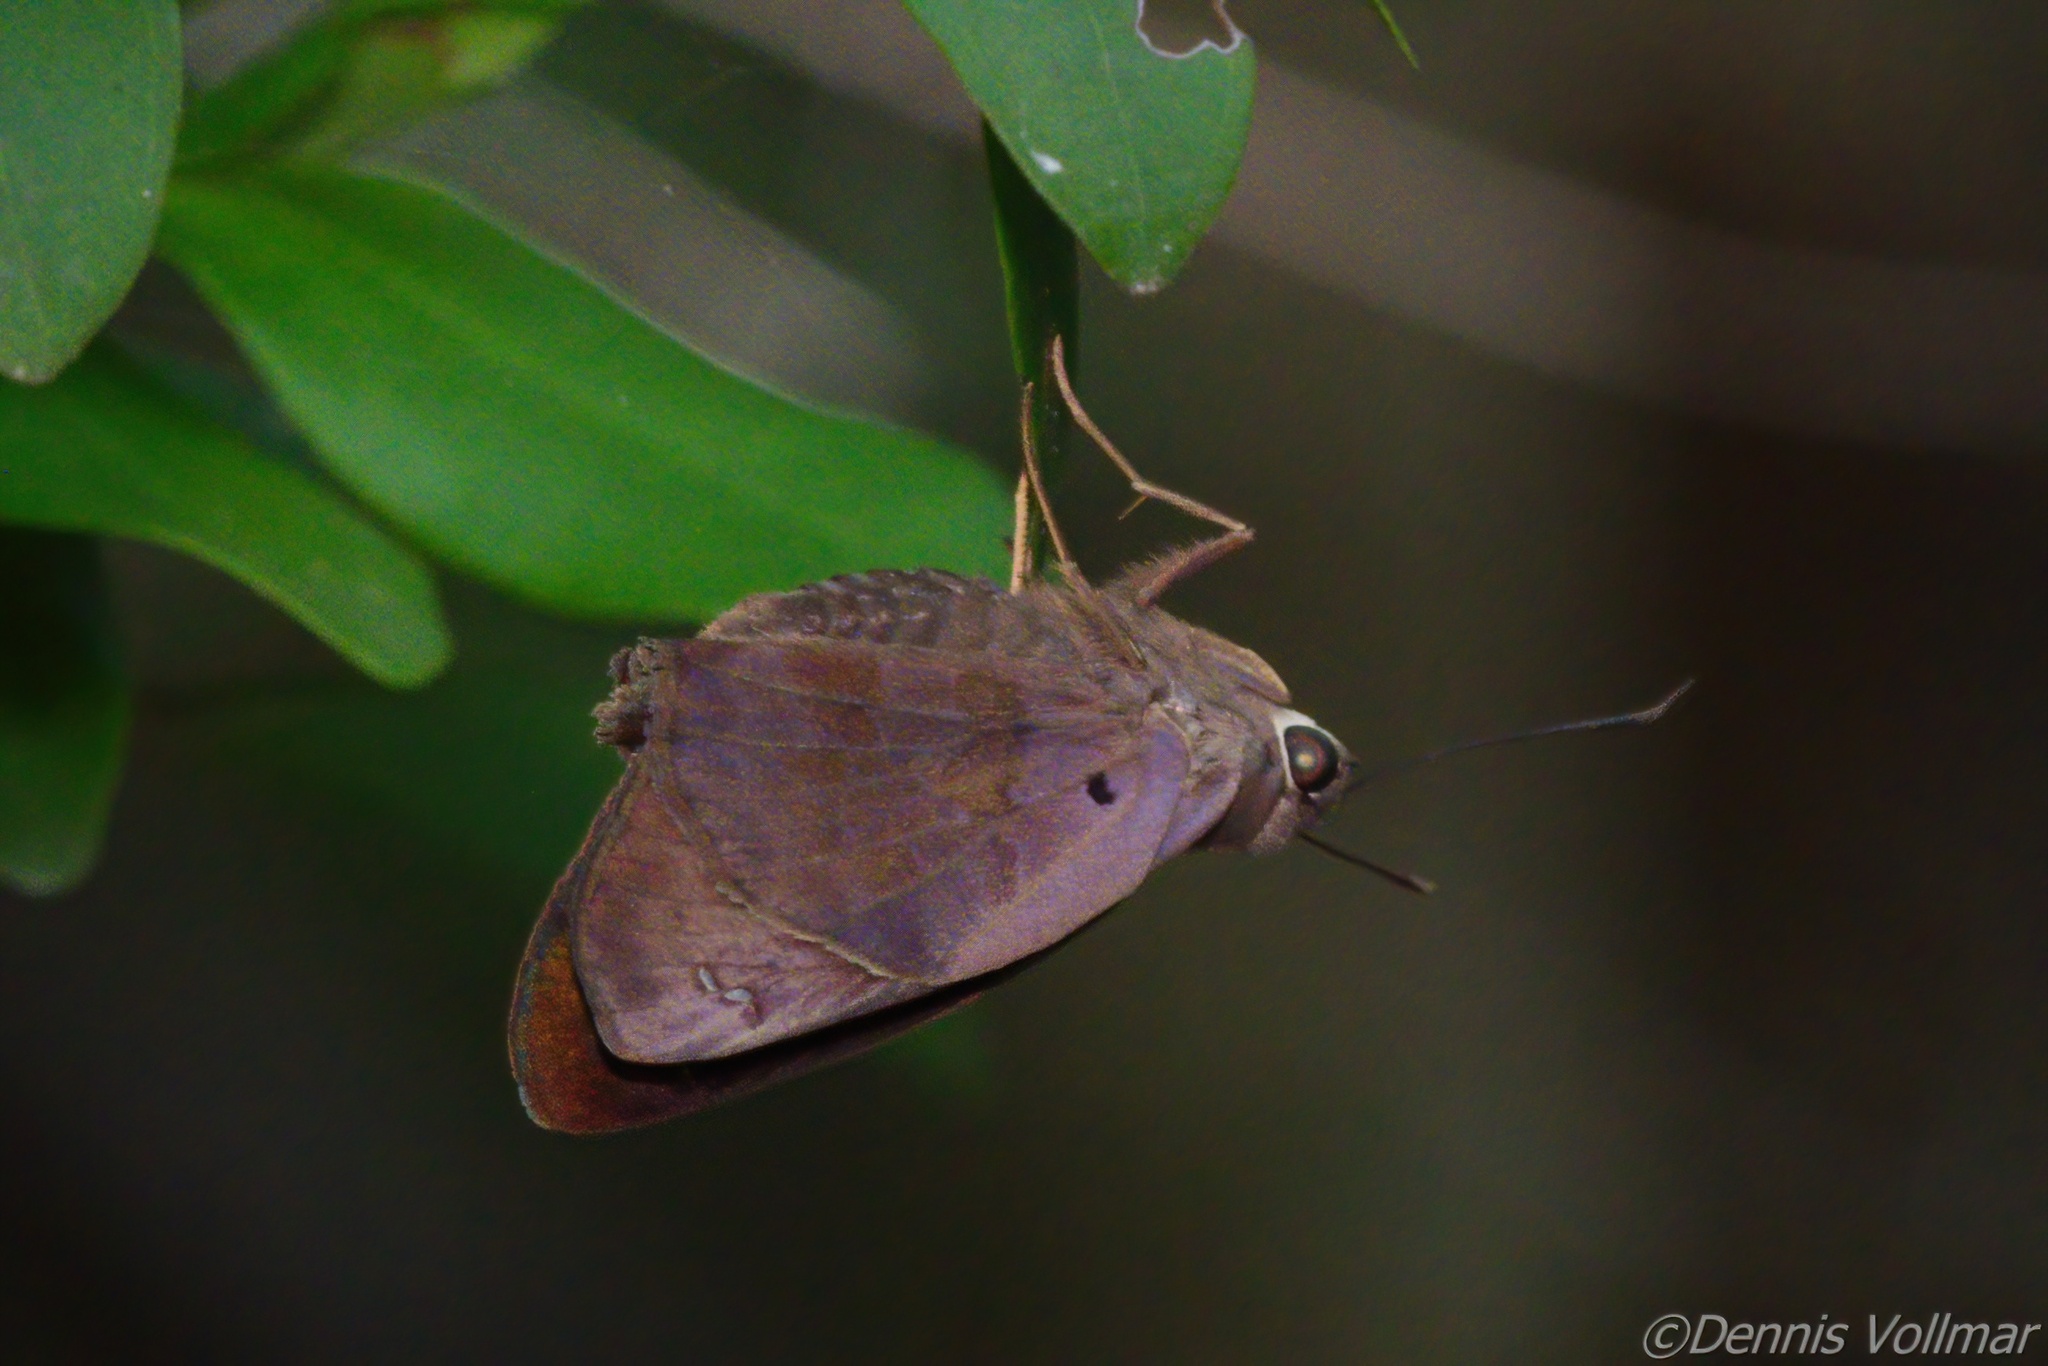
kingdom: Animalia
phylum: Arthropoda
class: Insecta
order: Lepidoptera
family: Hesperiidae
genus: Polygonus
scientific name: Polygonus leo
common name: Hammoch skipper
